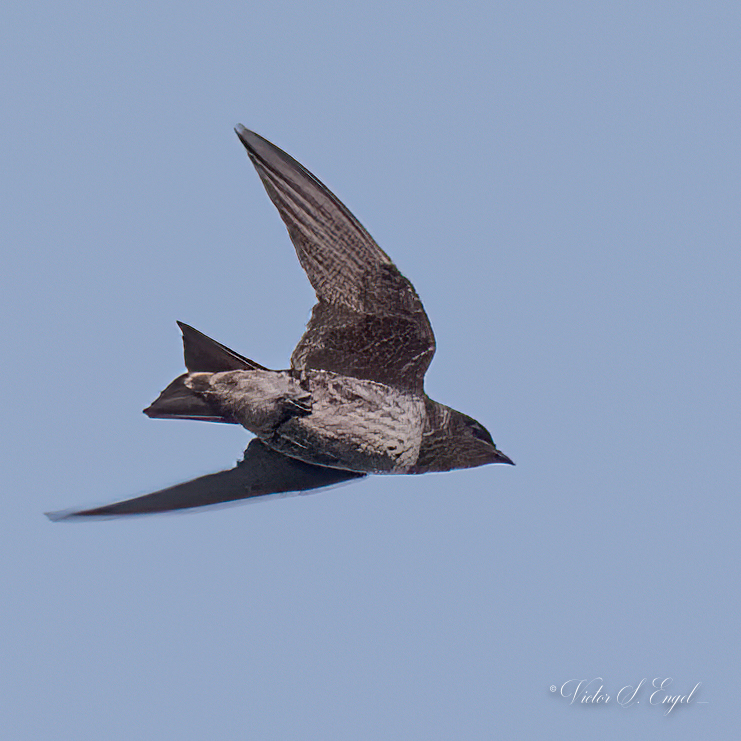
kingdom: Animalia
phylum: Chordata
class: Aves
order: Passeriformes
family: Hirundinidae
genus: Progne
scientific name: Progne subis
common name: Purple martin
